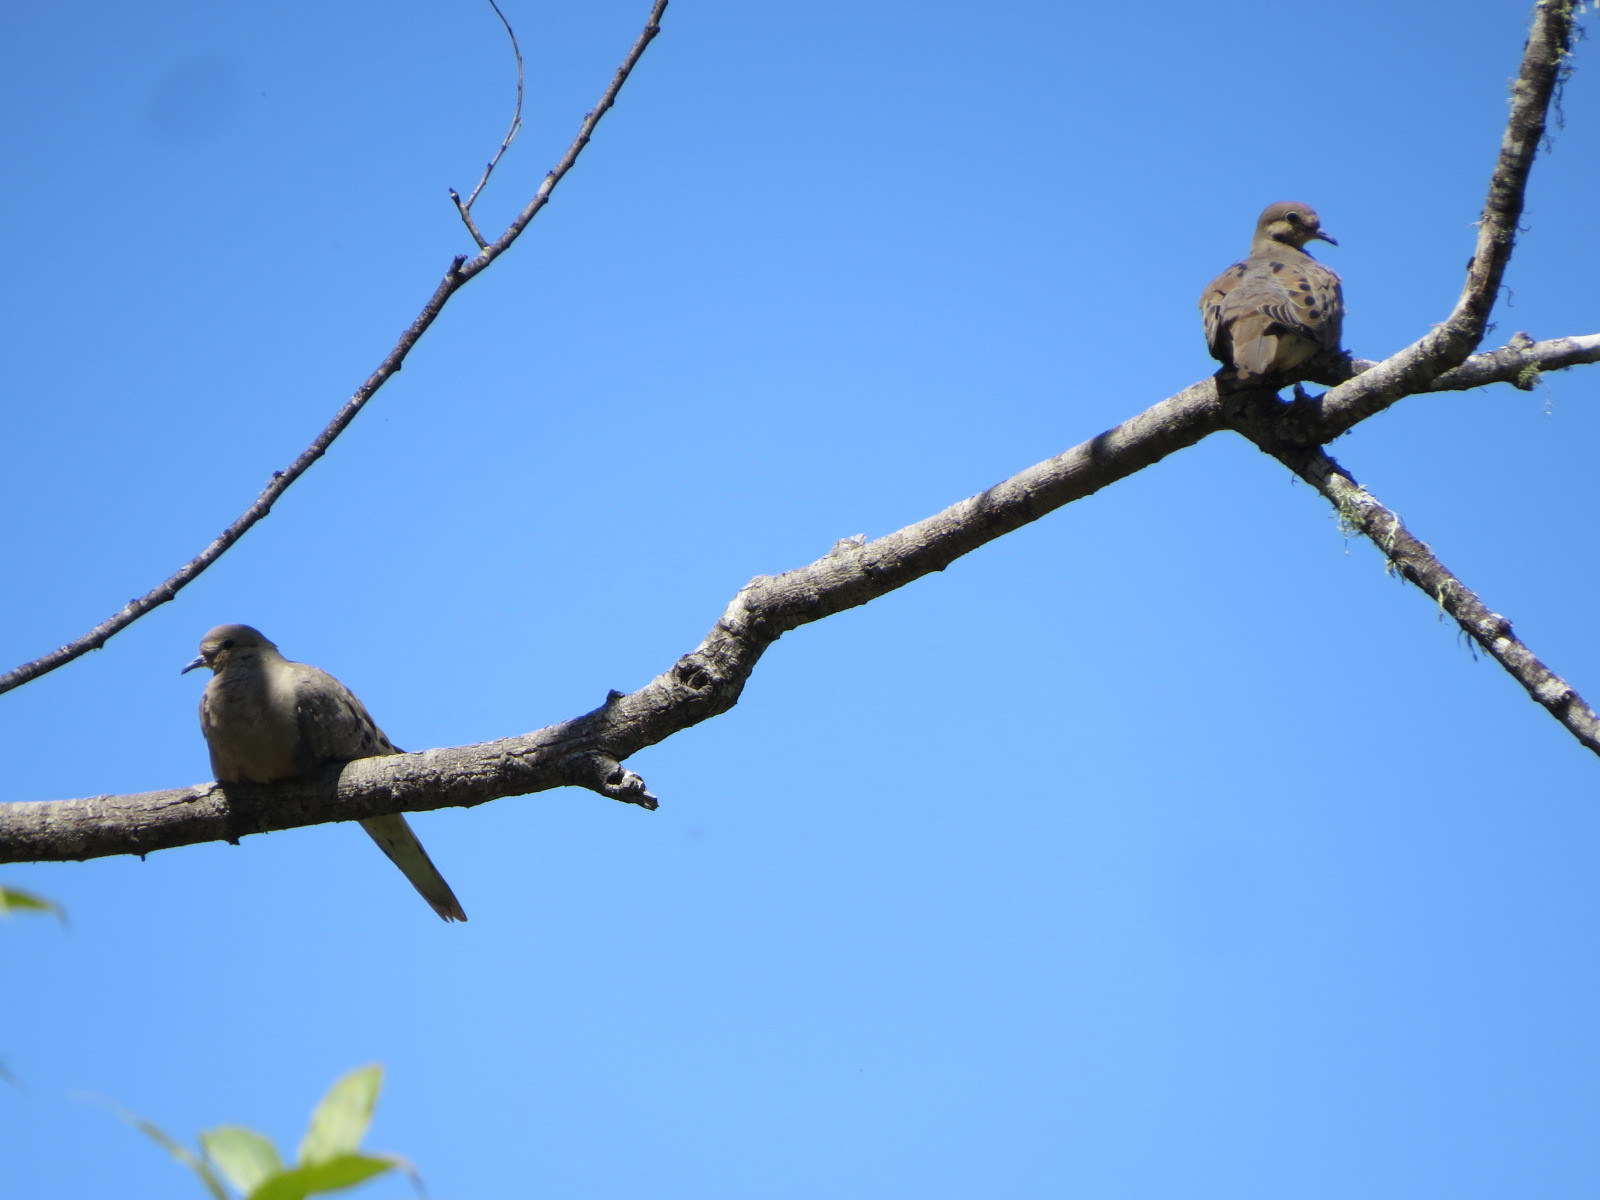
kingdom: Animalia
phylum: Chordata
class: Aves
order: Columbiformes
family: Columbidae
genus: Zenaida
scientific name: Zenaida macroura
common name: Mourning dove
